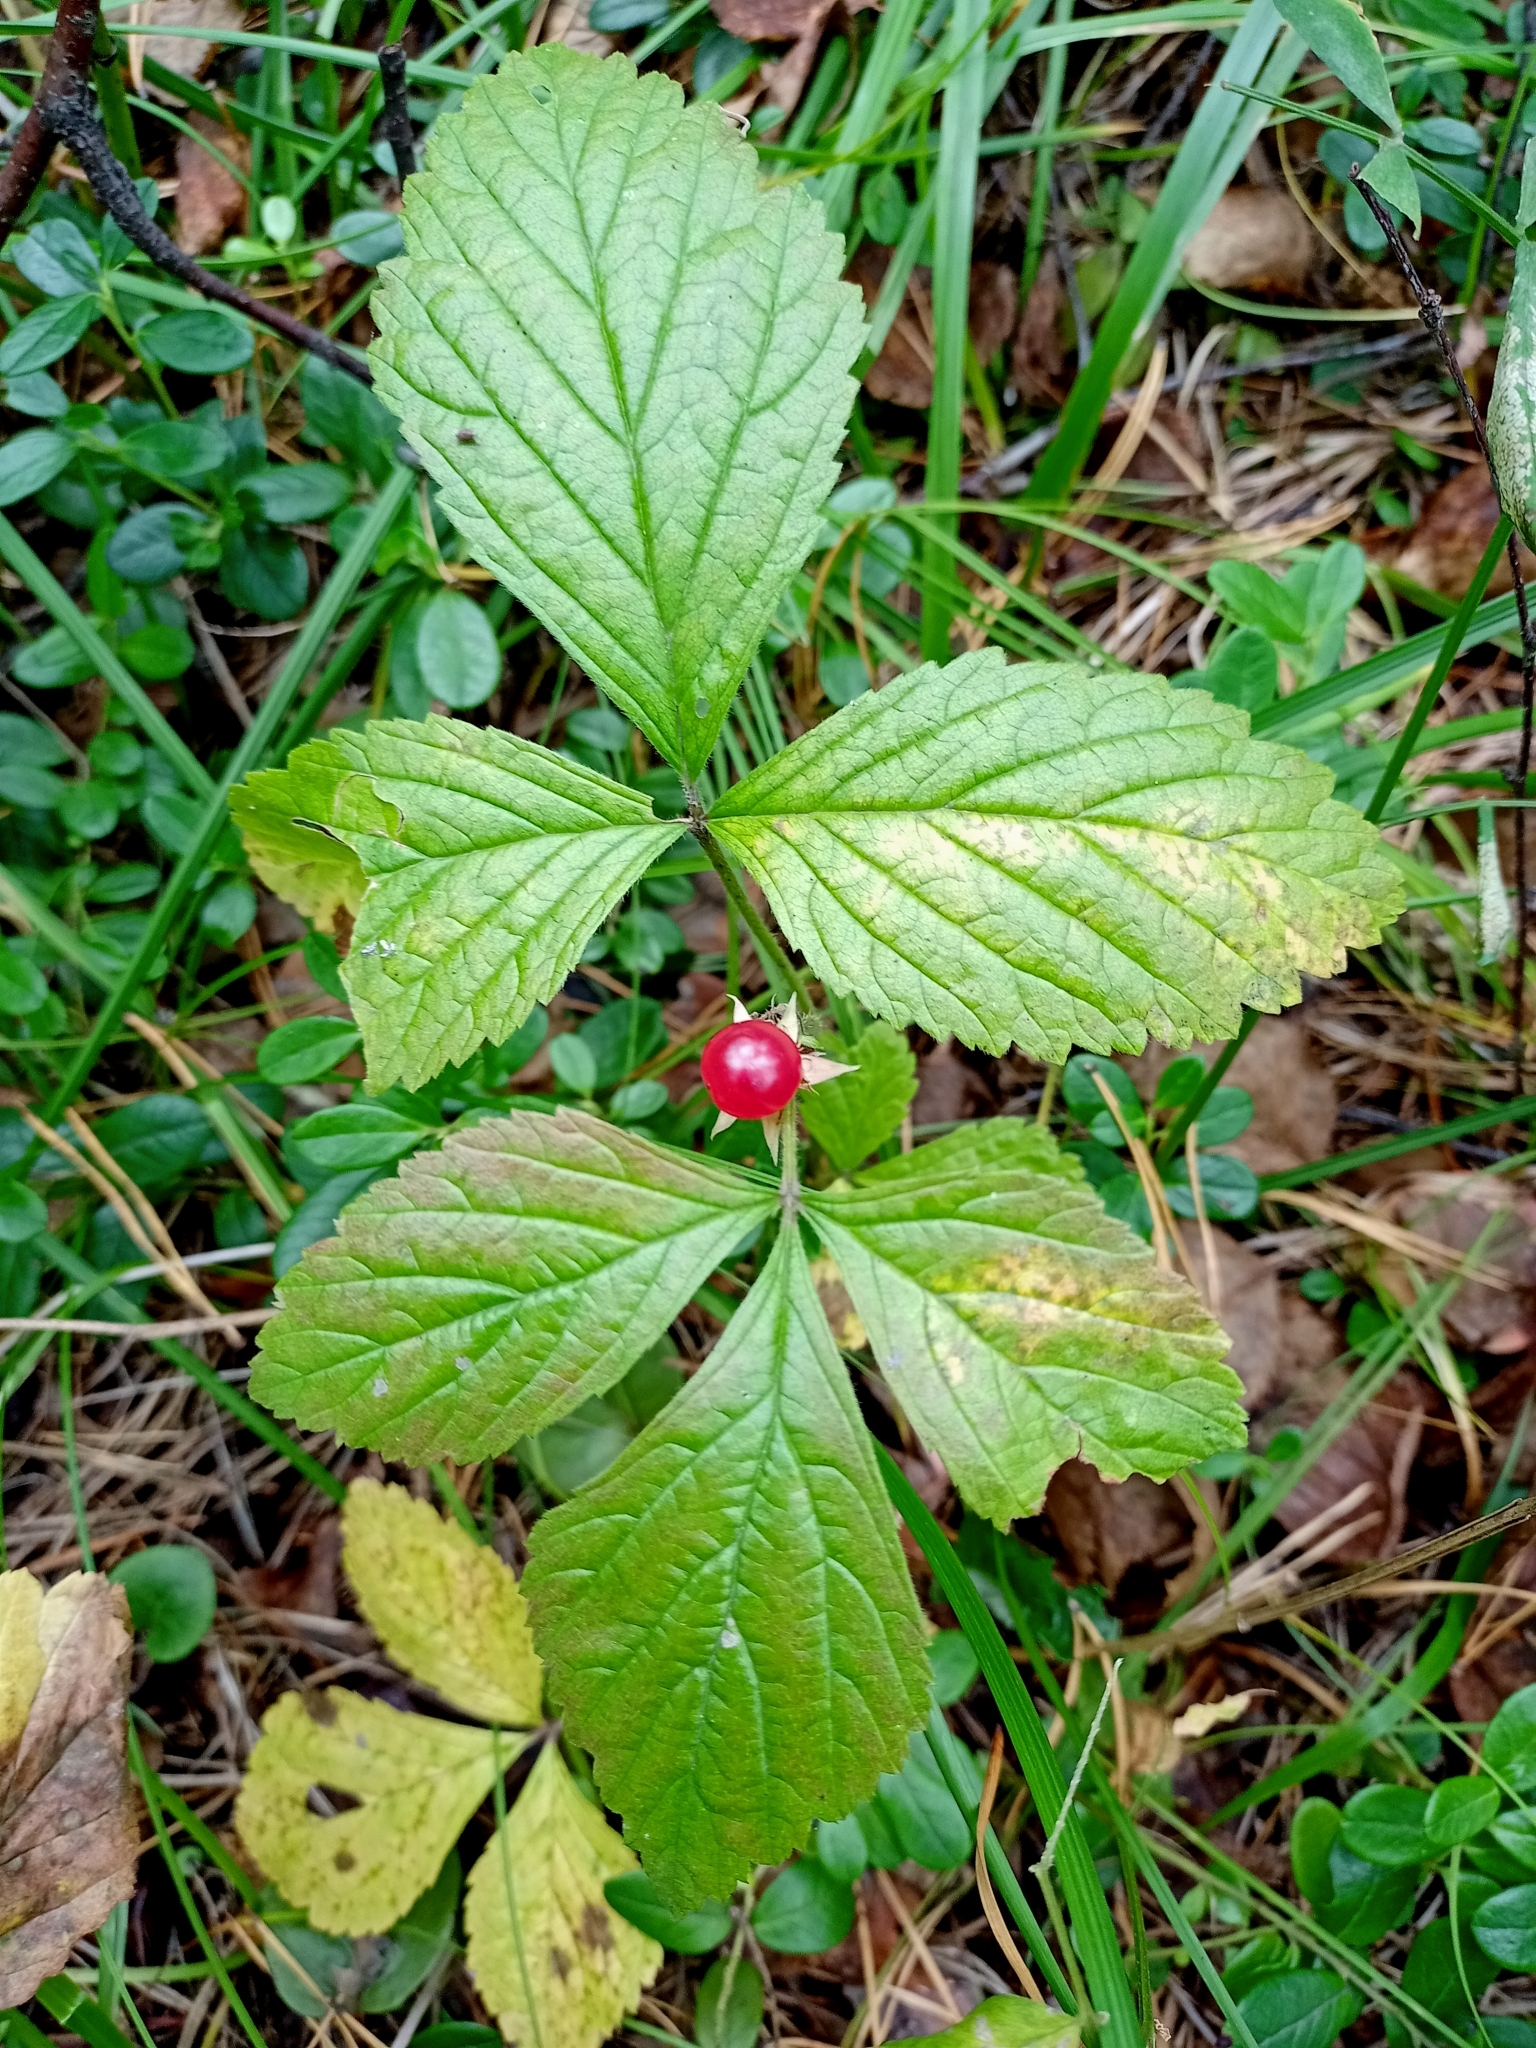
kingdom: Plantae
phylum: Tracheophyta
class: Magnoliopsida
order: Rosales
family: Rosaceae
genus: Rubus
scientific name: Rubus saxatilis
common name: Stone bramble
